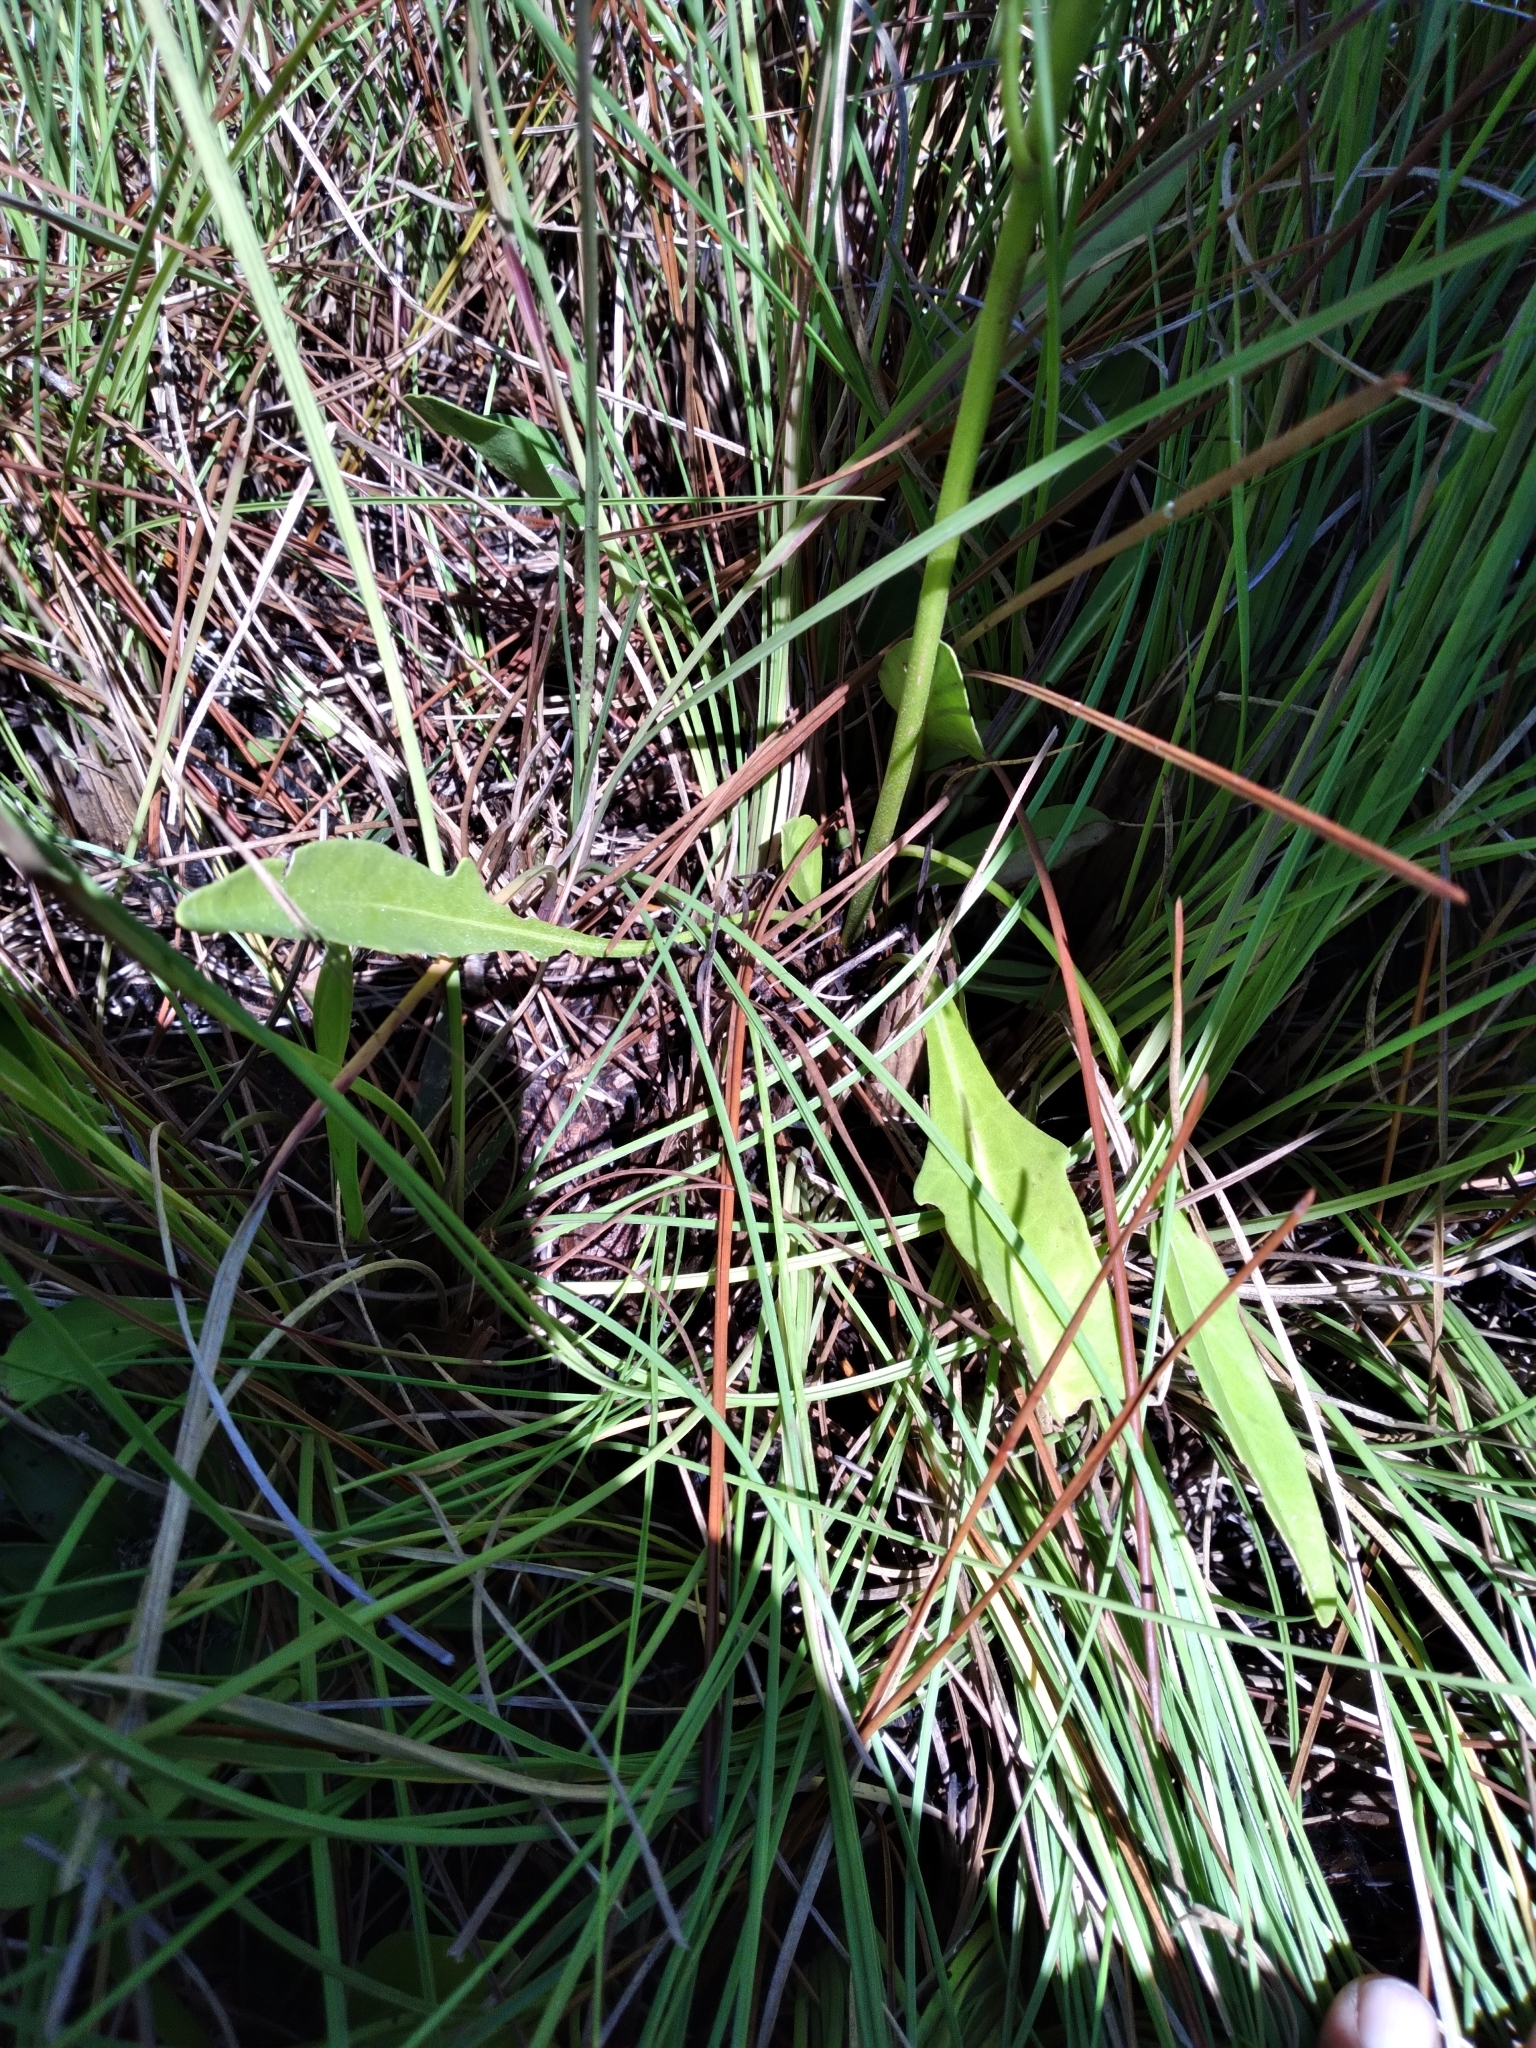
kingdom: Plantae
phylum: Tracheophyta
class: Magnoliopsida
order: Asterales
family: Asteraceae
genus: Hartwrightia
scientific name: Hartwrightia floridana
